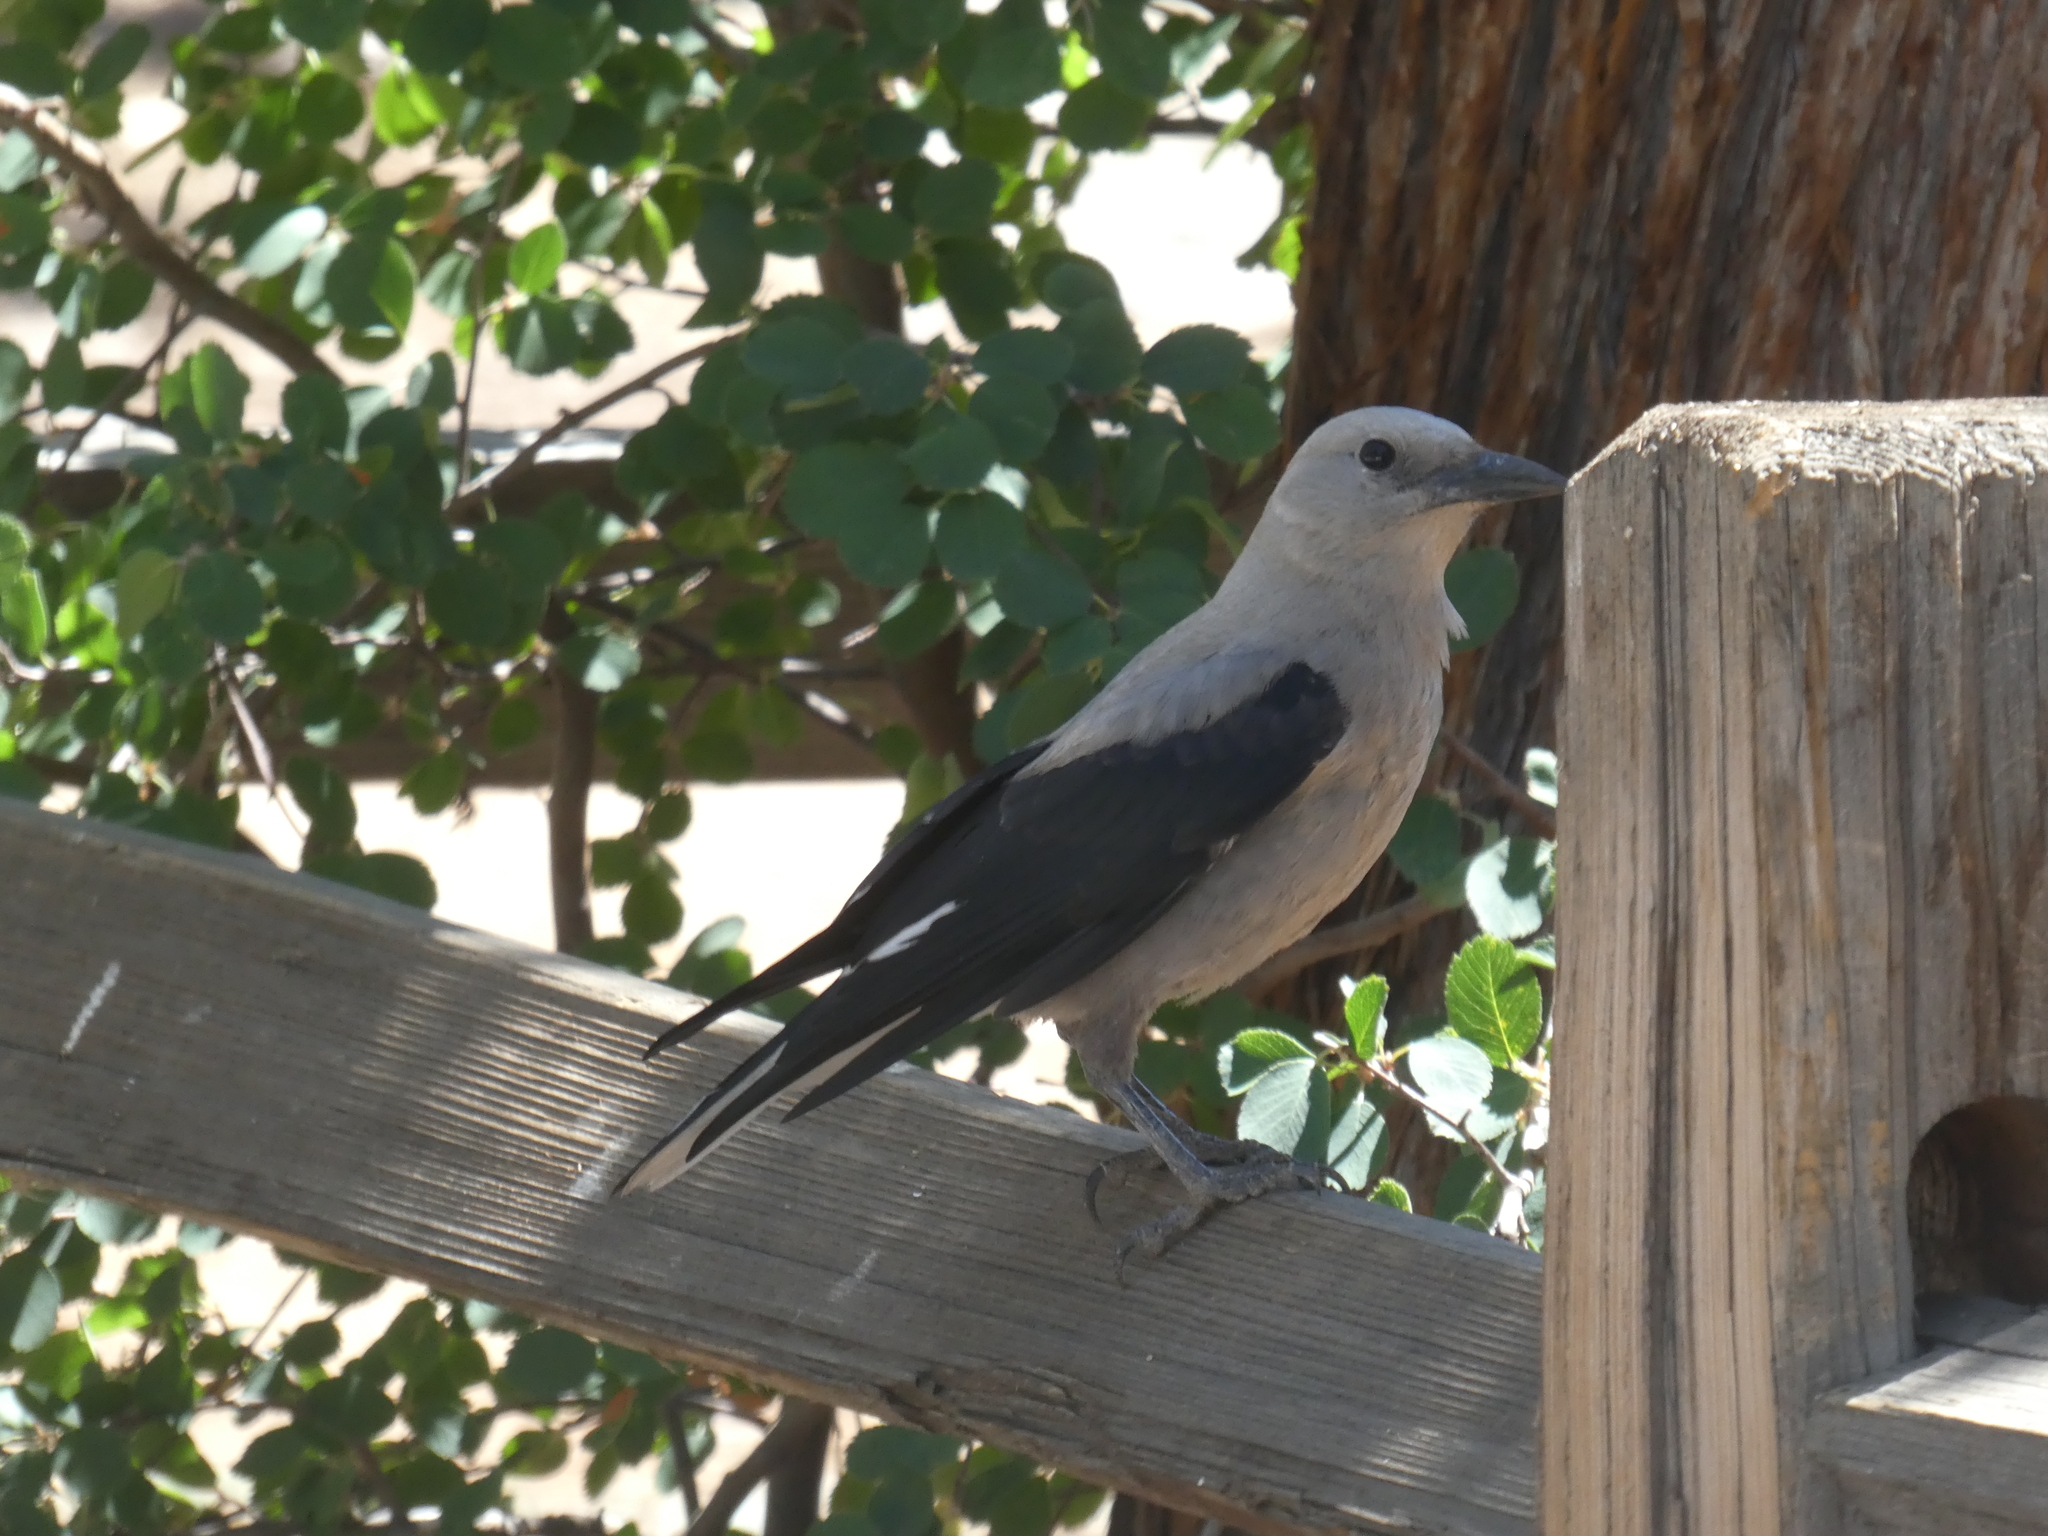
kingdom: Animalia
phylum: Chordata
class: Aves
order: Passeriformes
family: Corvidae
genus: Nucifraga
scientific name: Nucifraga columbiana
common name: Clark's nutcracker
